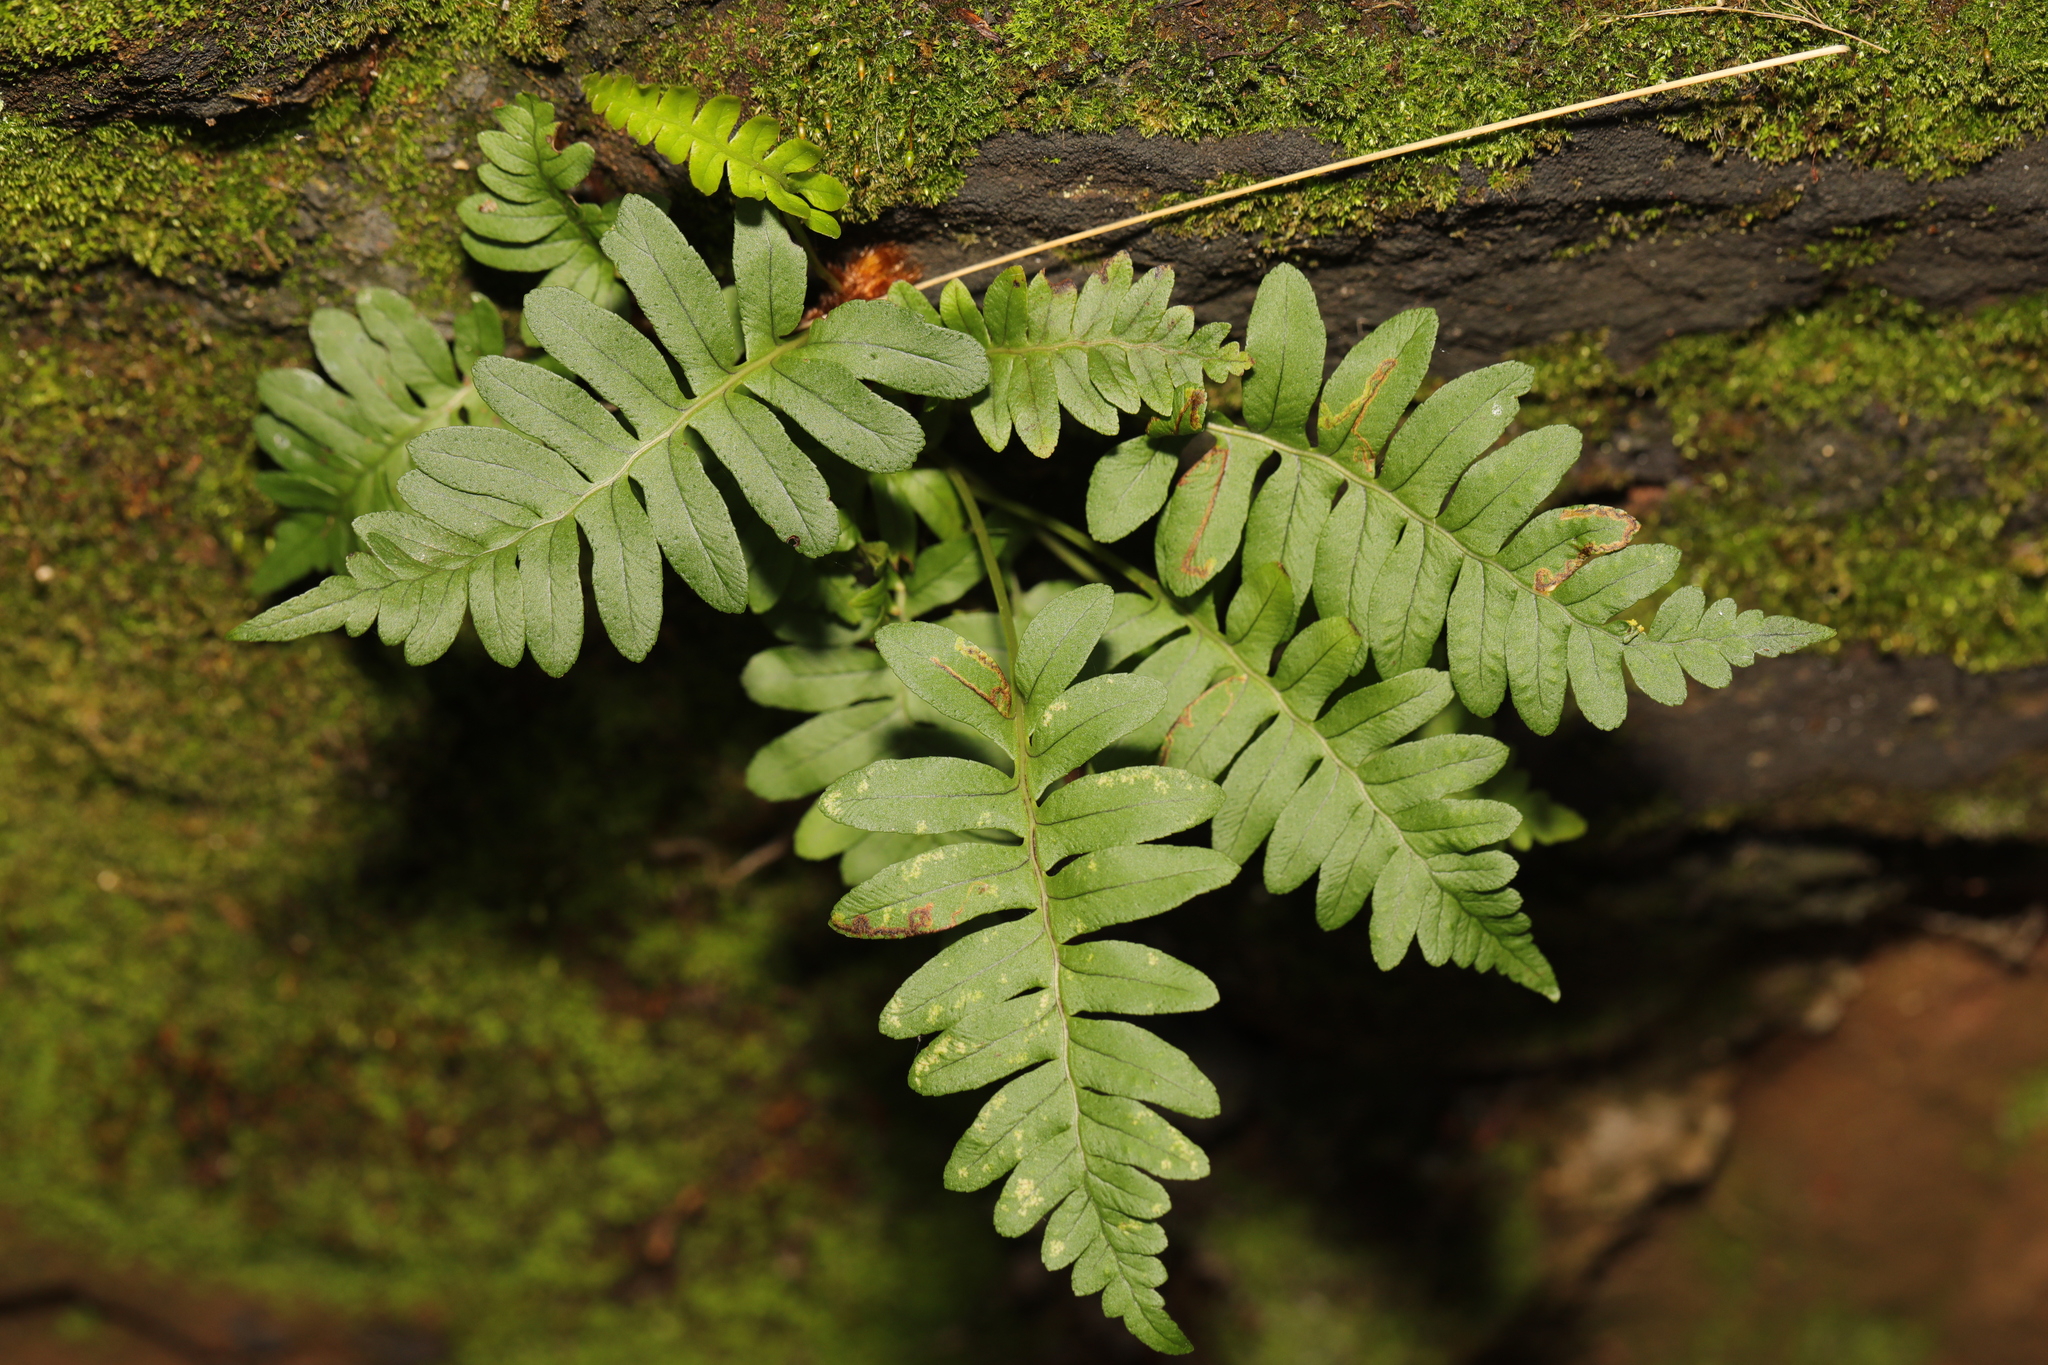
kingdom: Plantae
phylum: Tracheophyta
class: Polypodiopsida
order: Polypodiales
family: Polypodiaceae
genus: Polypodium
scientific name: Polypodium vulgare
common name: Common polypody
